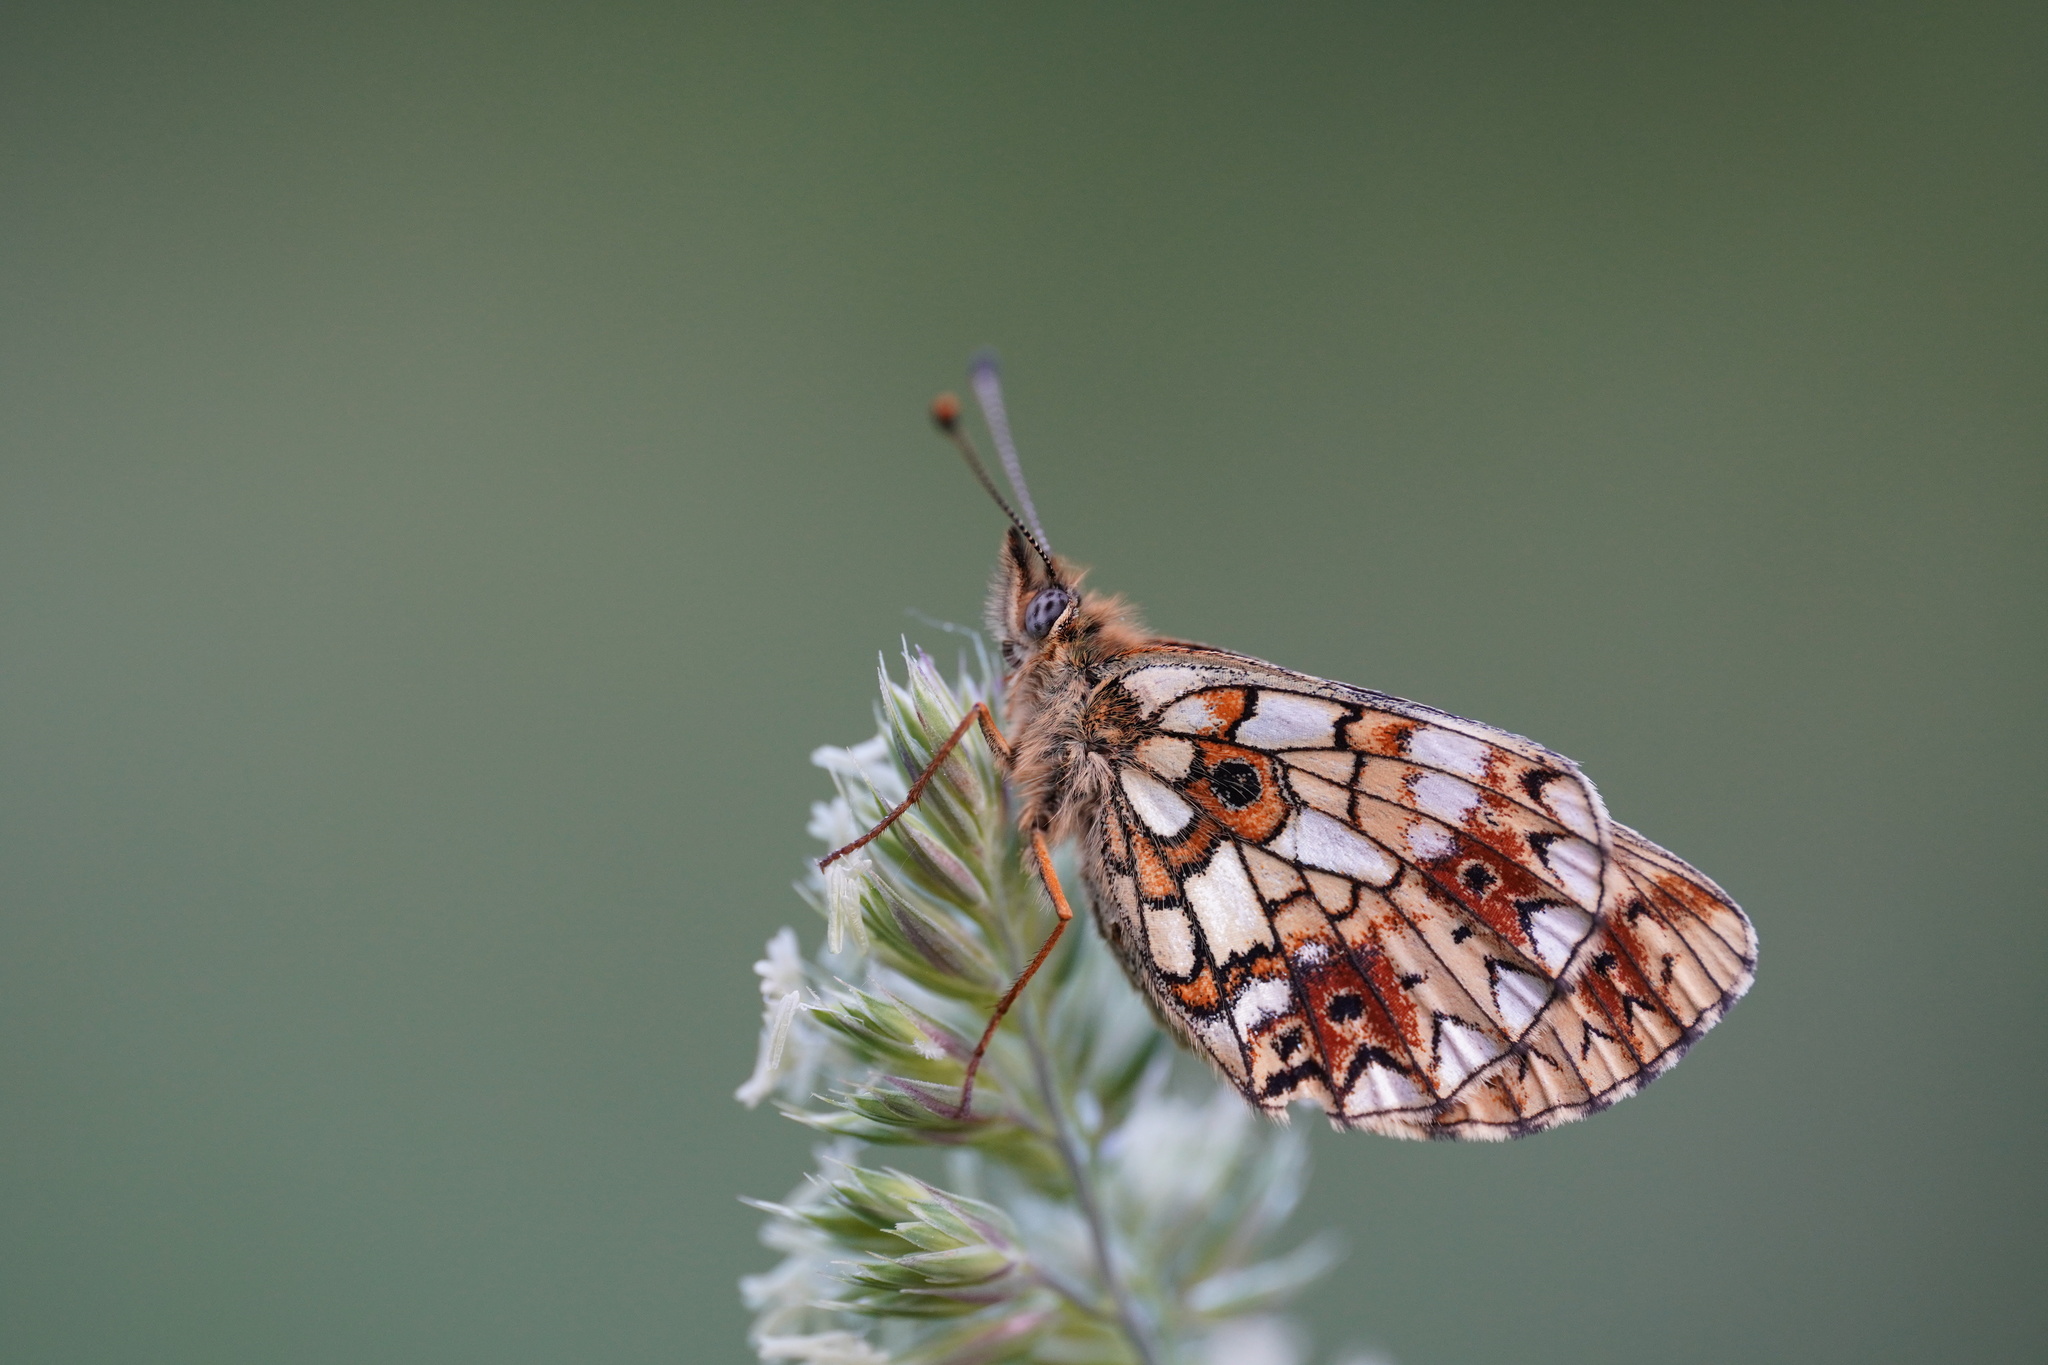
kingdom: Animalia
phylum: Arthropoda
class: Insecta
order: Lepidoptera
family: Nymphalidae
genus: Boloria
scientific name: Boloria selene
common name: Small pearl-bordered fritillary
